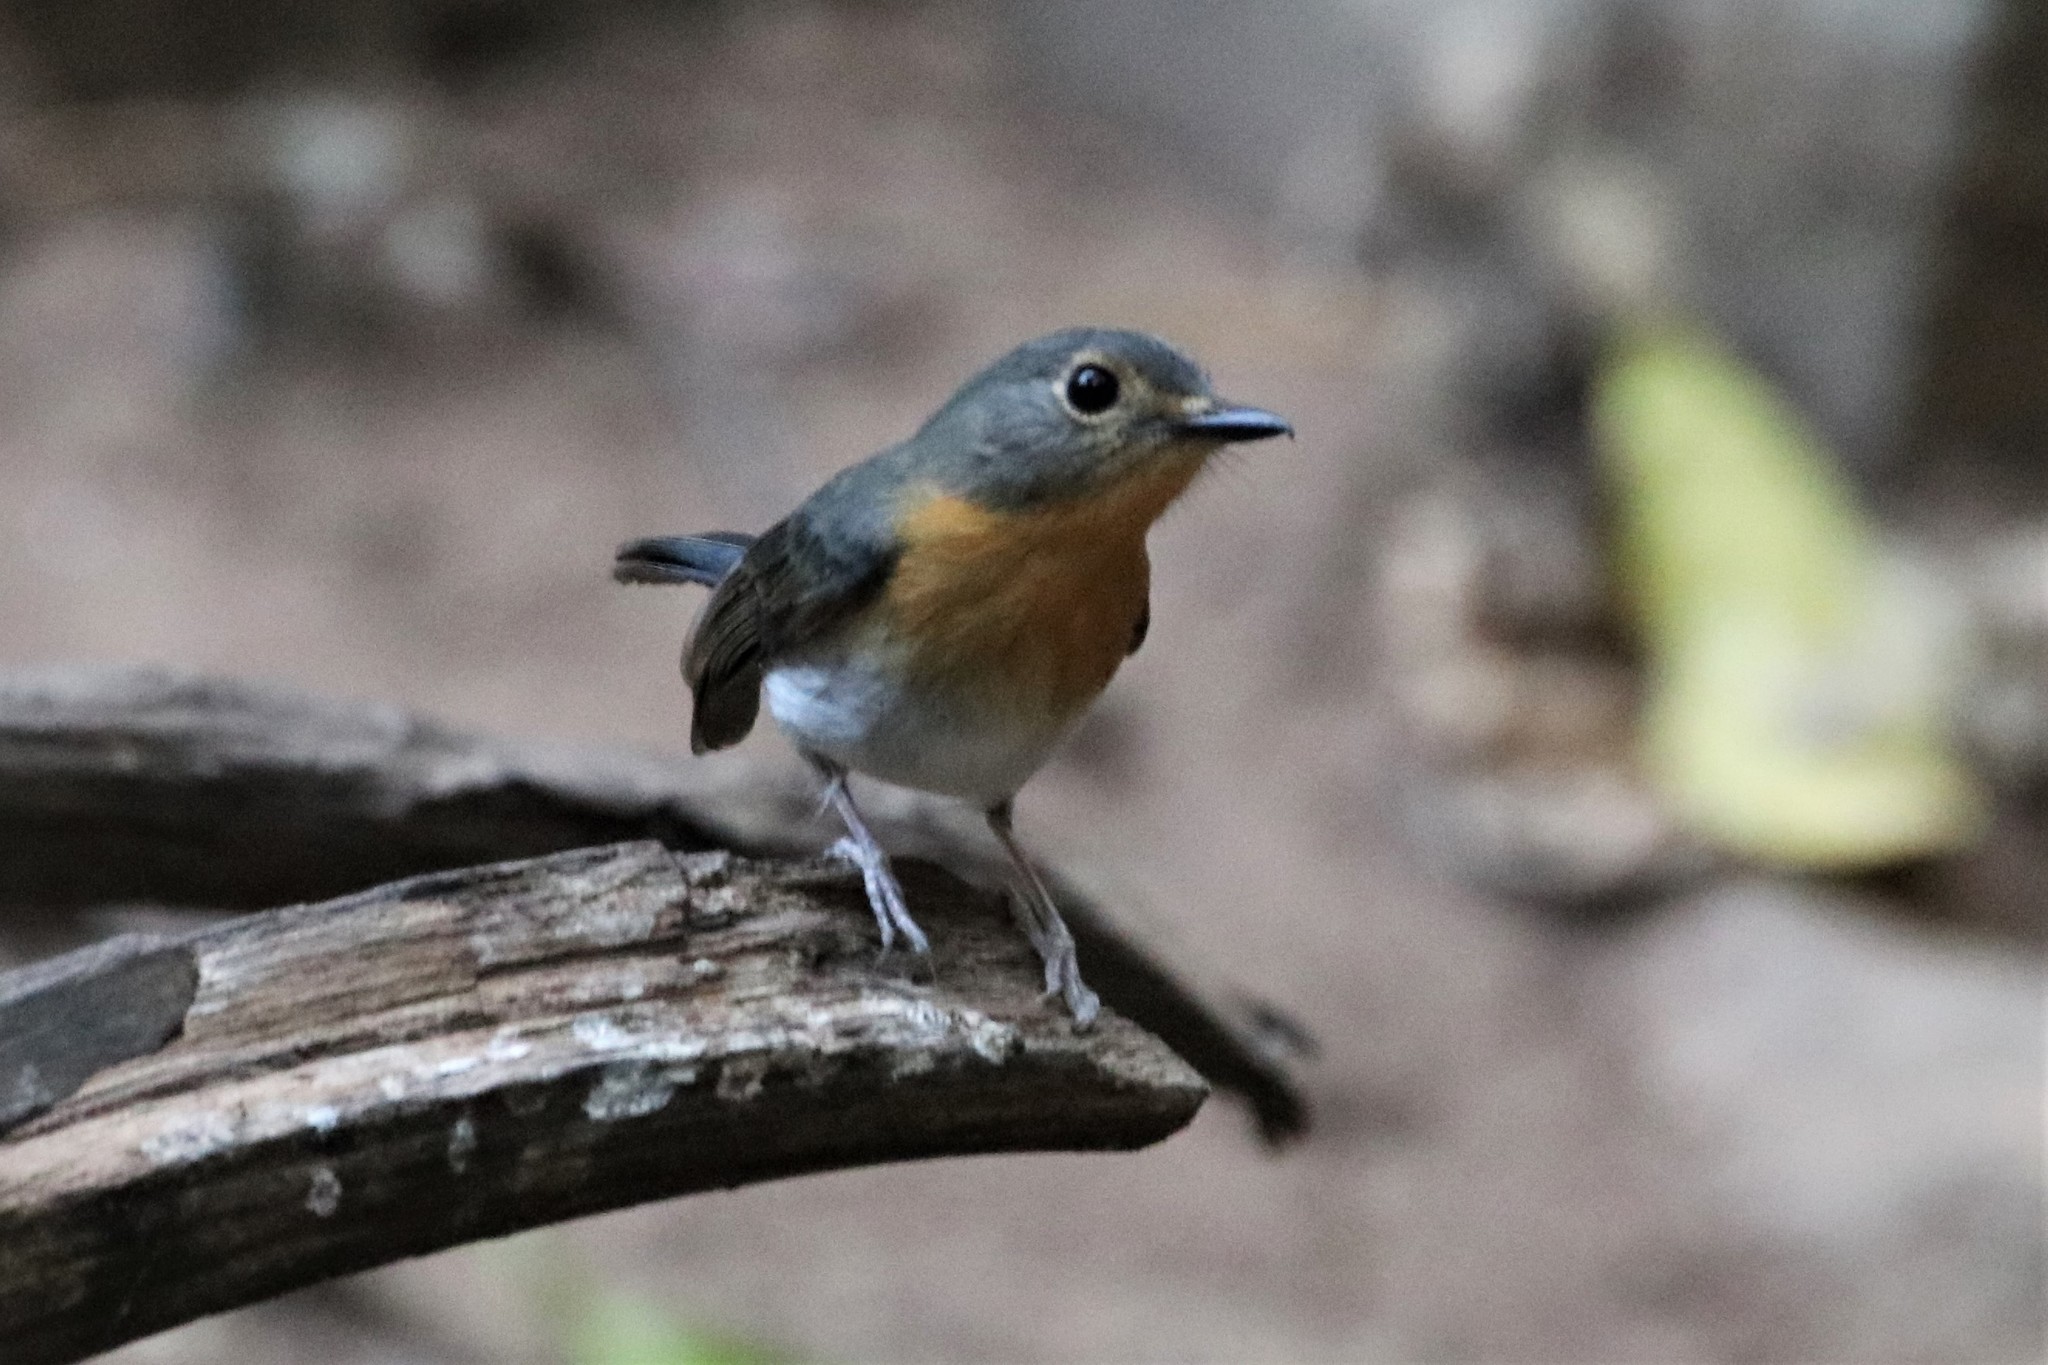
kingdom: Animalia
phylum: Chordata
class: Aves
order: Passeriformes
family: Muscicapidae
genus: Cyornis
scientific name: Cyornis tickelliae
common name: Tickell's blue flycatcher
